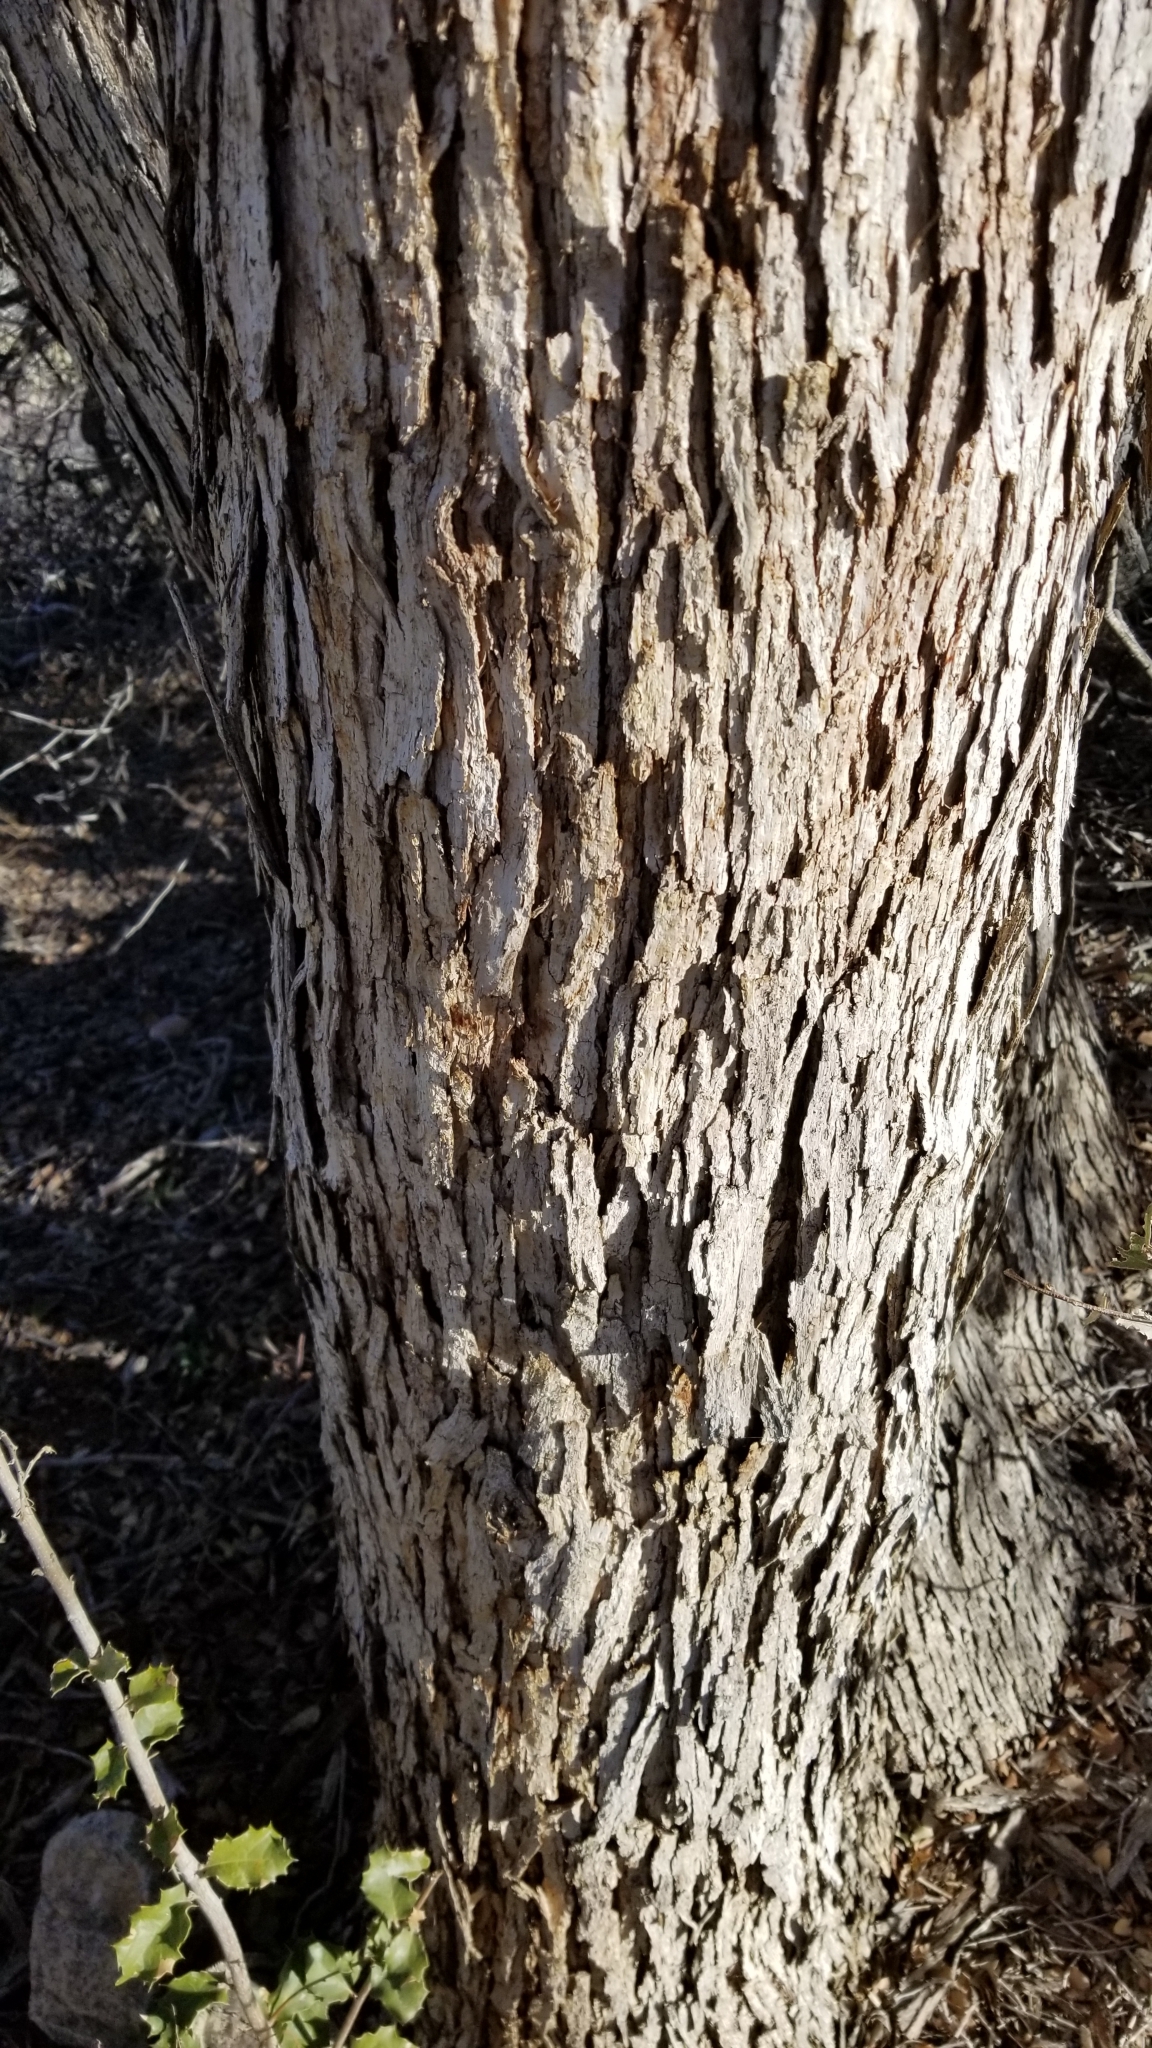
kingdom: Plantae
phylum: Tracheophyta
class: Magnoliopsida
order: Fagales
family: Fagaceae
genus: Quercus
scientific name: Quercus cornelius-mulleri
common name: Muller oak
